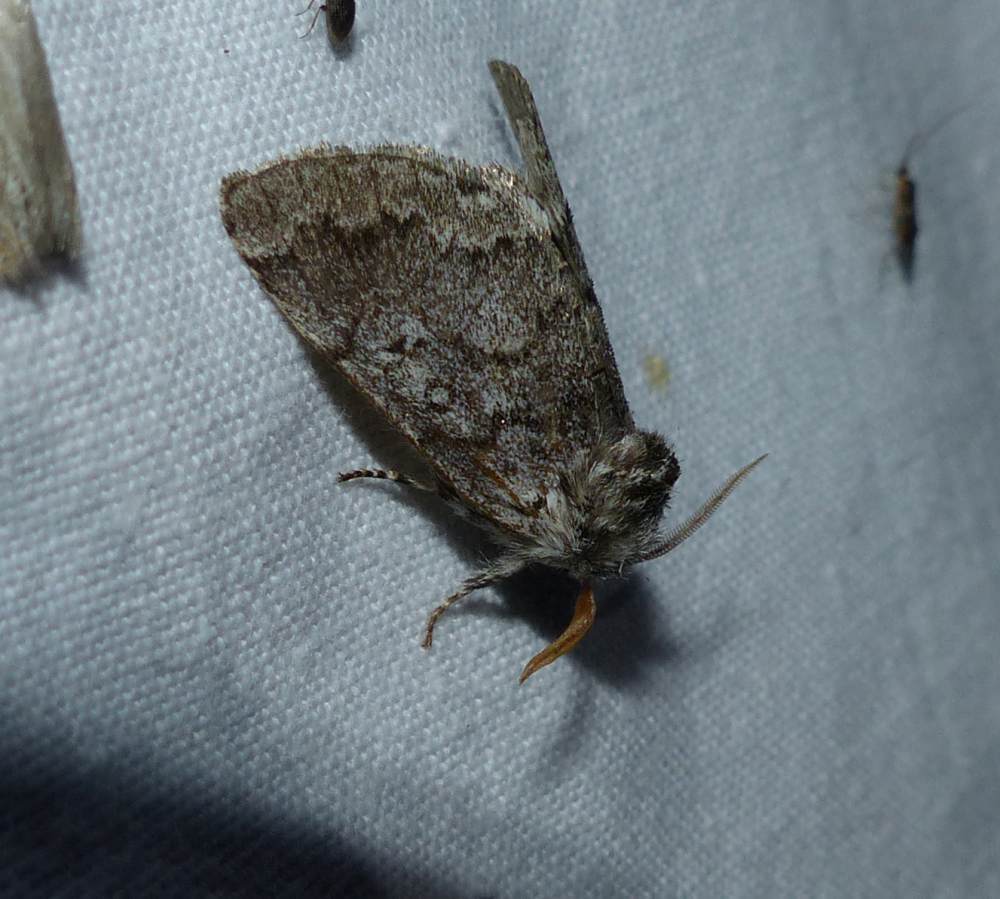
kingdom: Animalia
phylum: Arthropoda
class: Insecta
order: Lepidoptera
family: Noctuidae
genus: Colocasia
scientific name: Colocasia propinquilinea
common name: Close-banded demas
